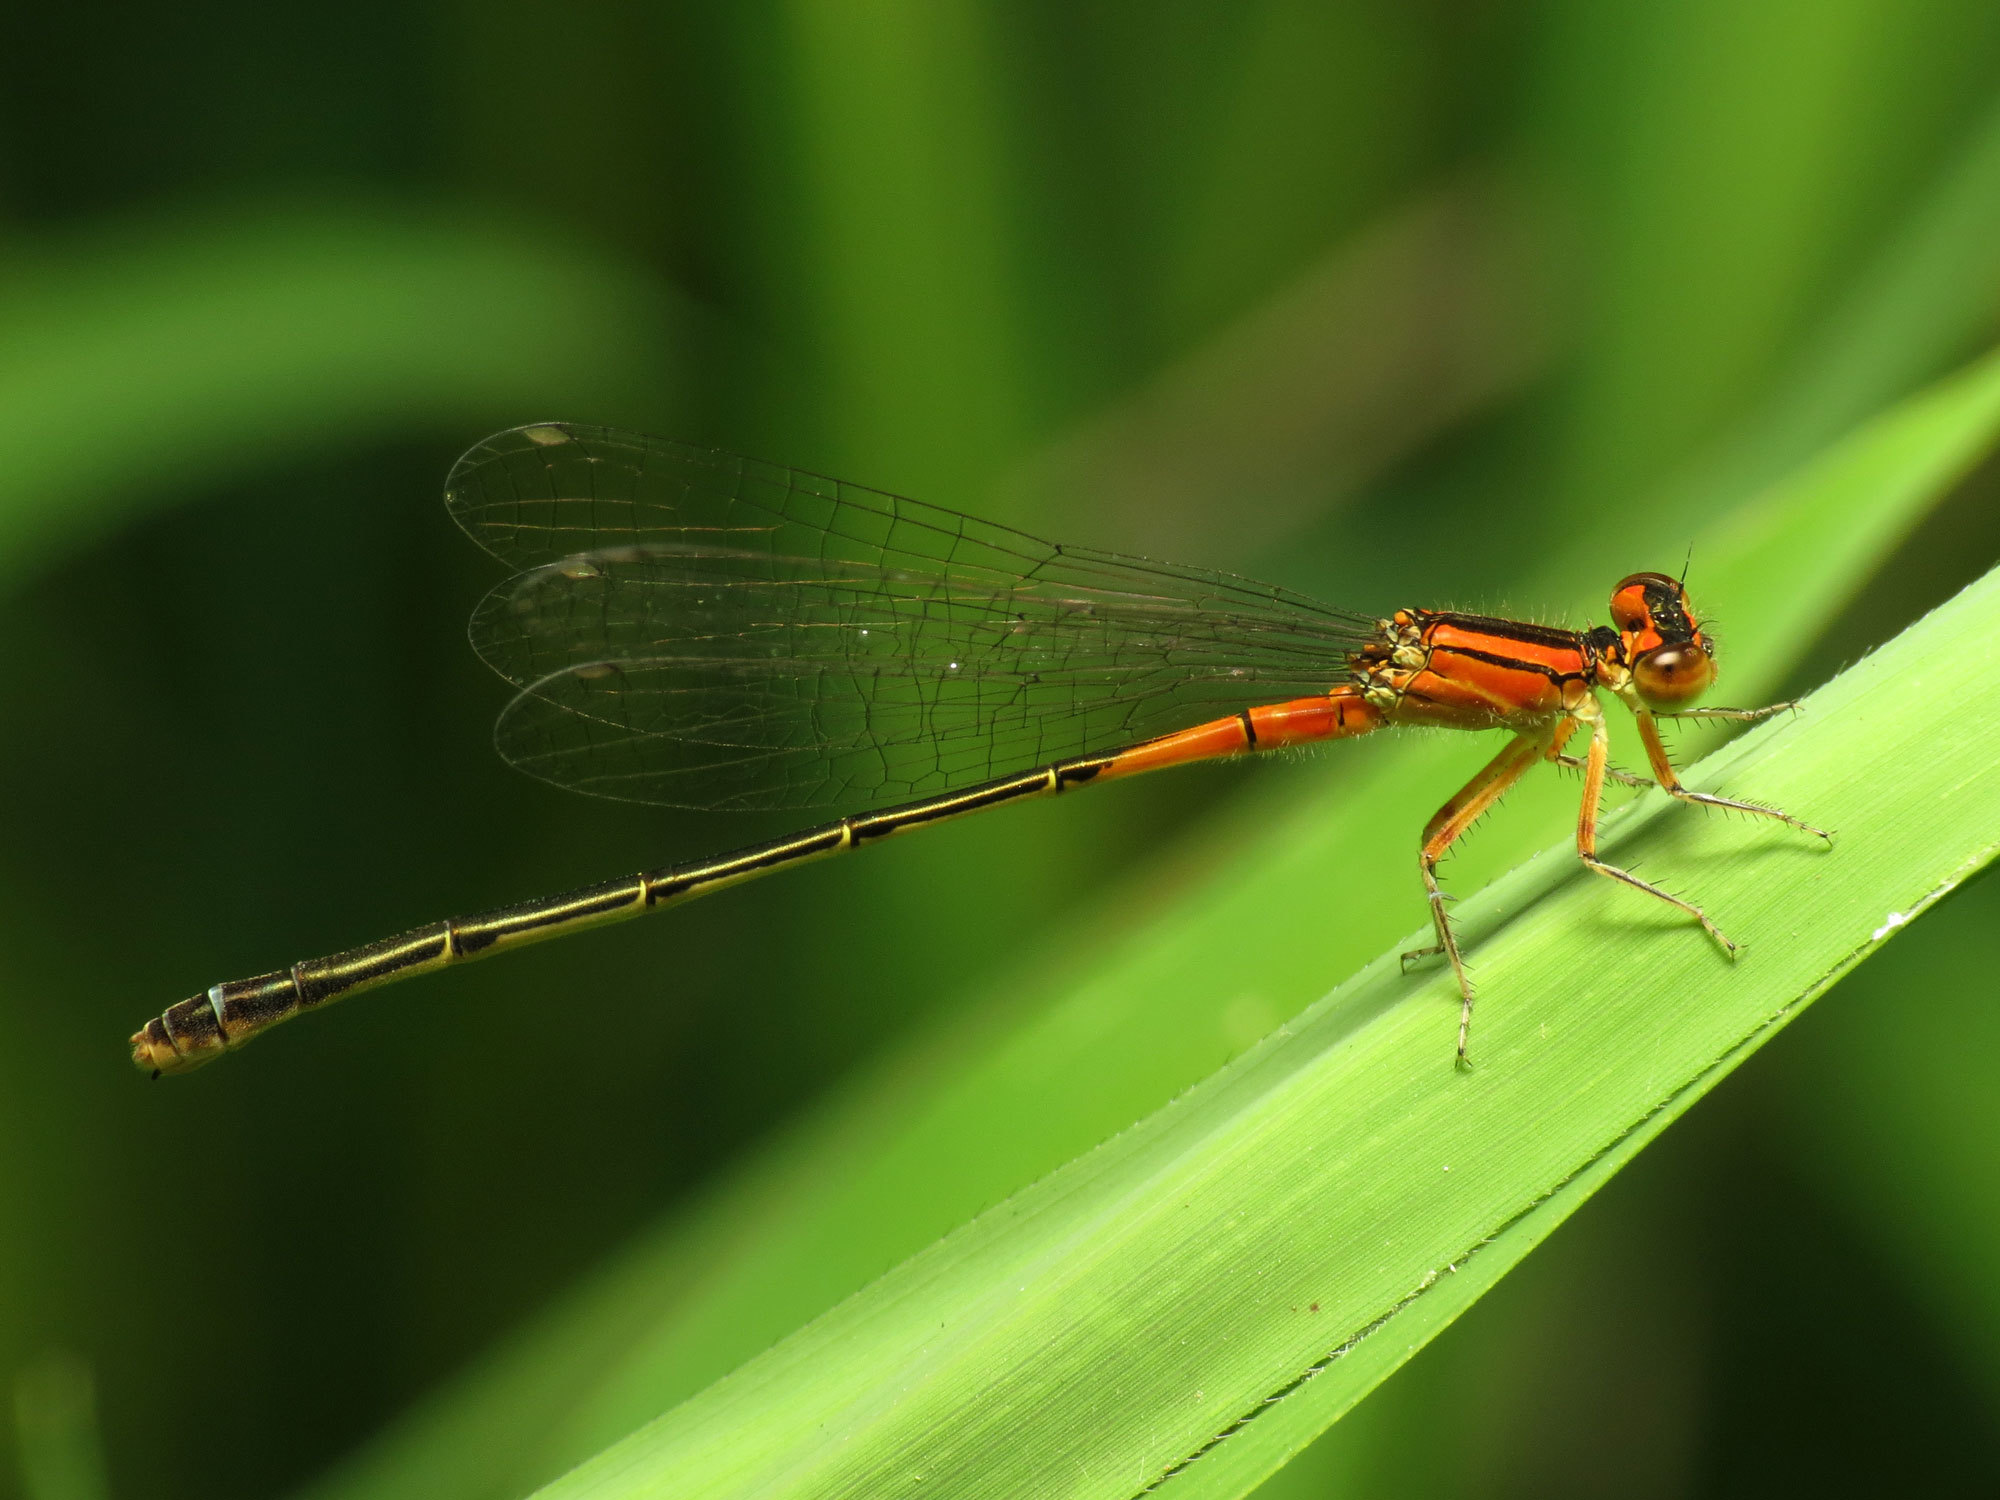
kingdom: Animalia
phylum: Arthropoda
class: Insecta
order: Odonata
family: Coenagrionidae
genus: Ischnura
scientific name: Ischnura verticalis
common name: Eastern forktail
